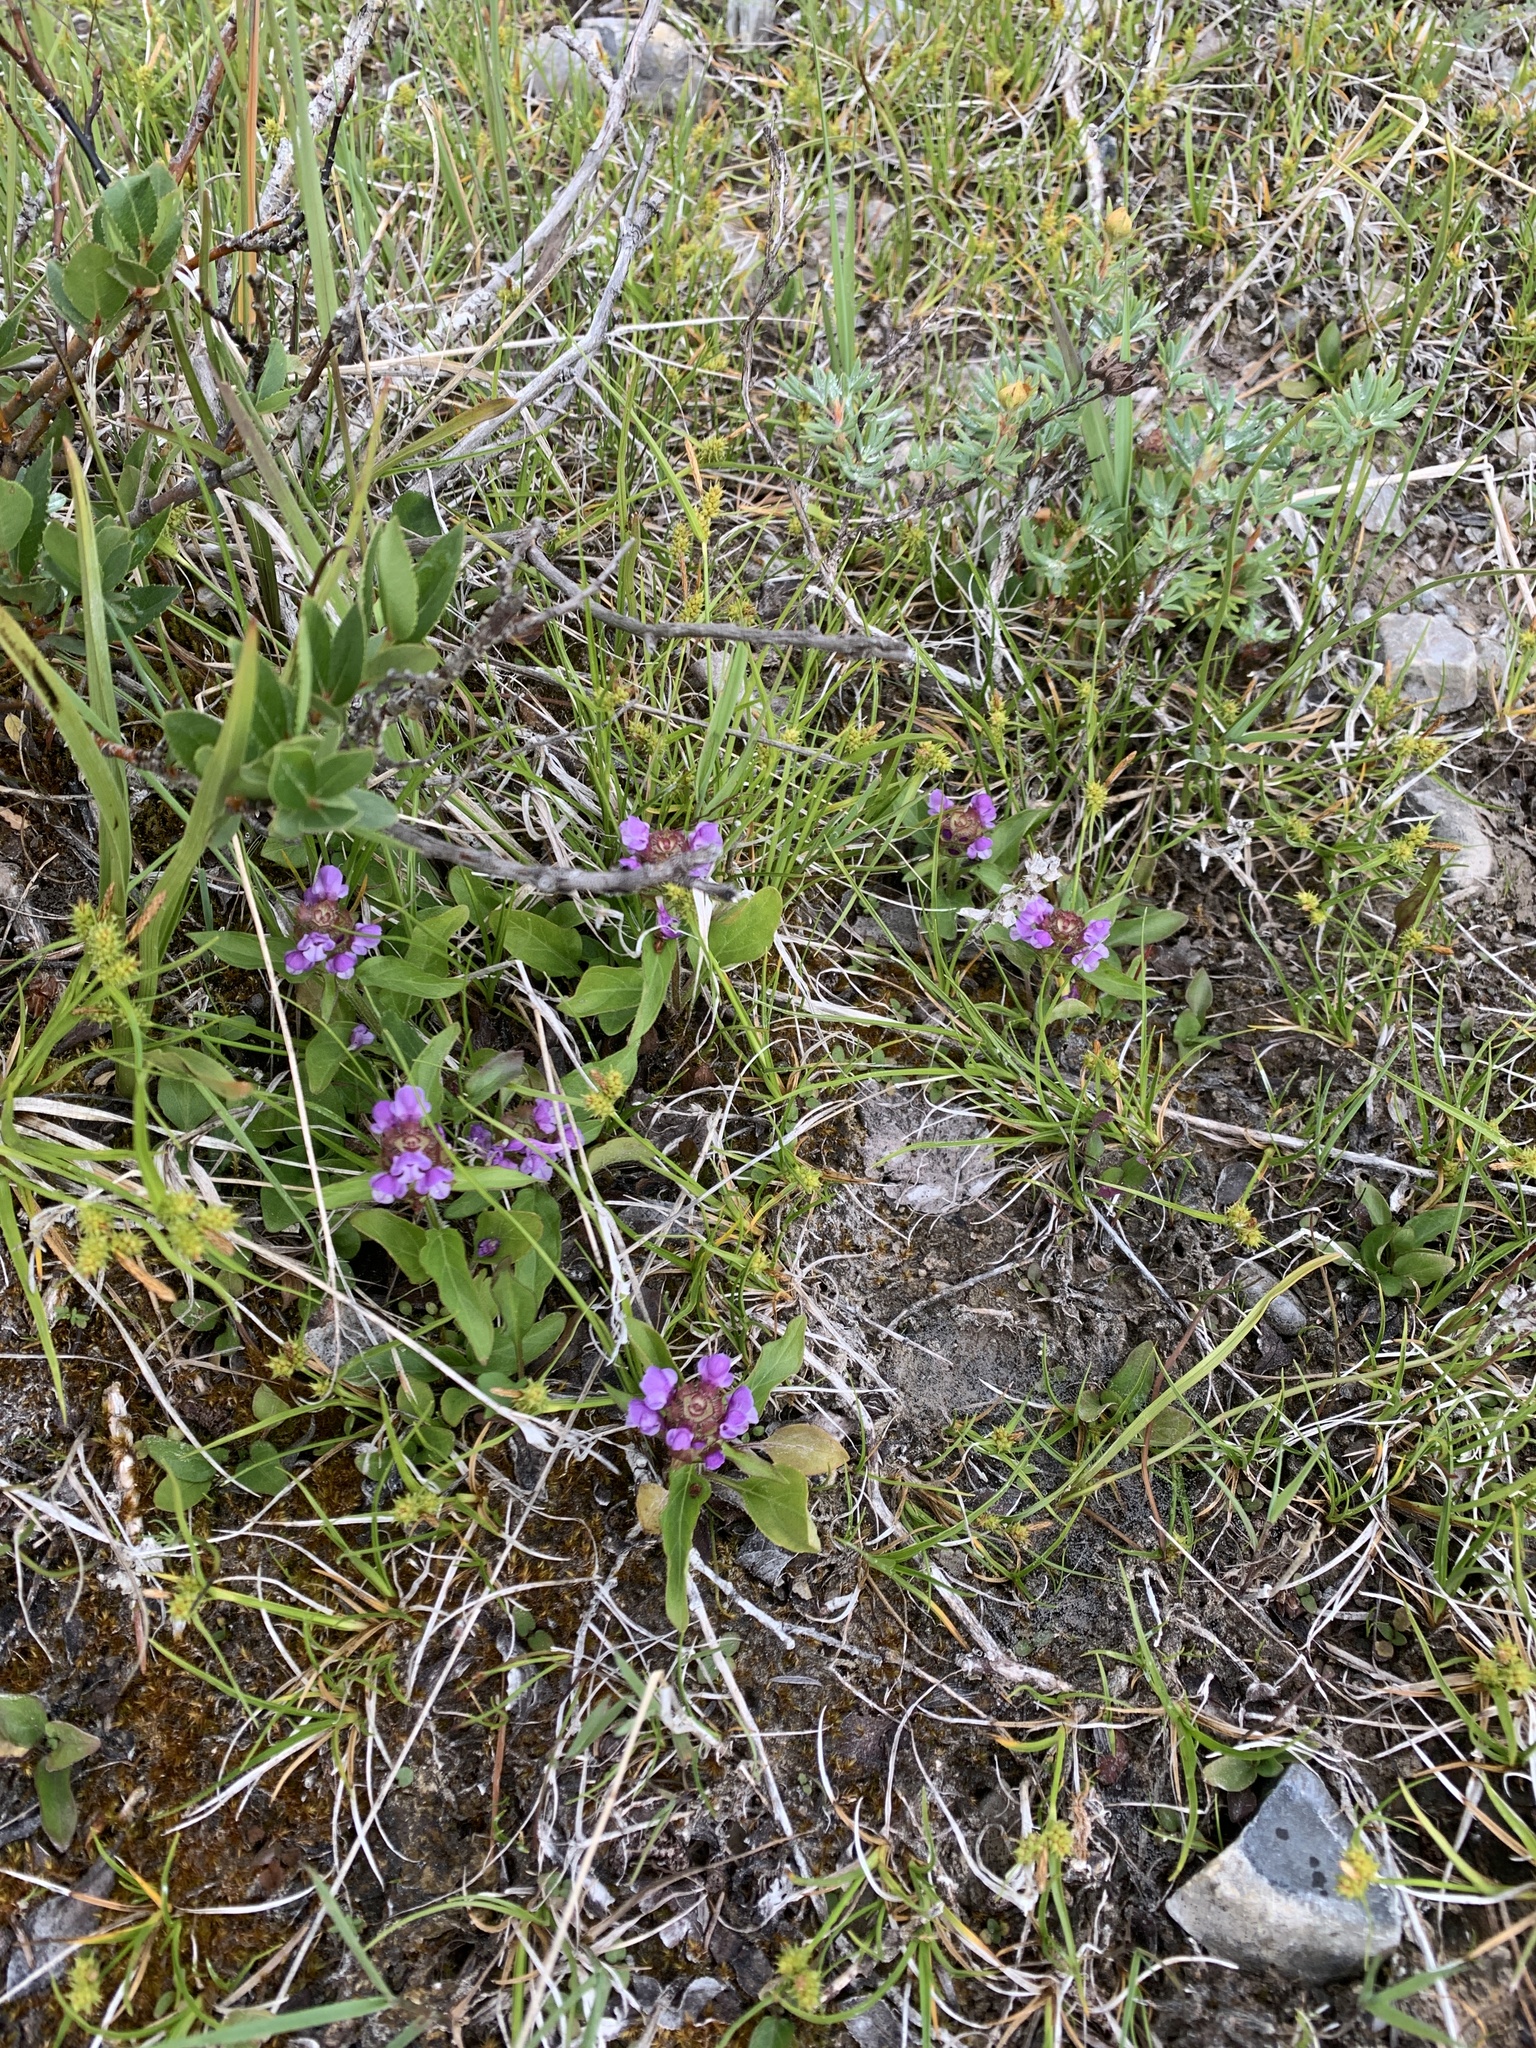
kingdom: Plantae
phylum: Tracheophyta
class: Magnoliopsida
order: Lamiales
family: Lamiaceae
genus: Prunella
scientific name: Prunella vulgaris
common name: Heal-all
